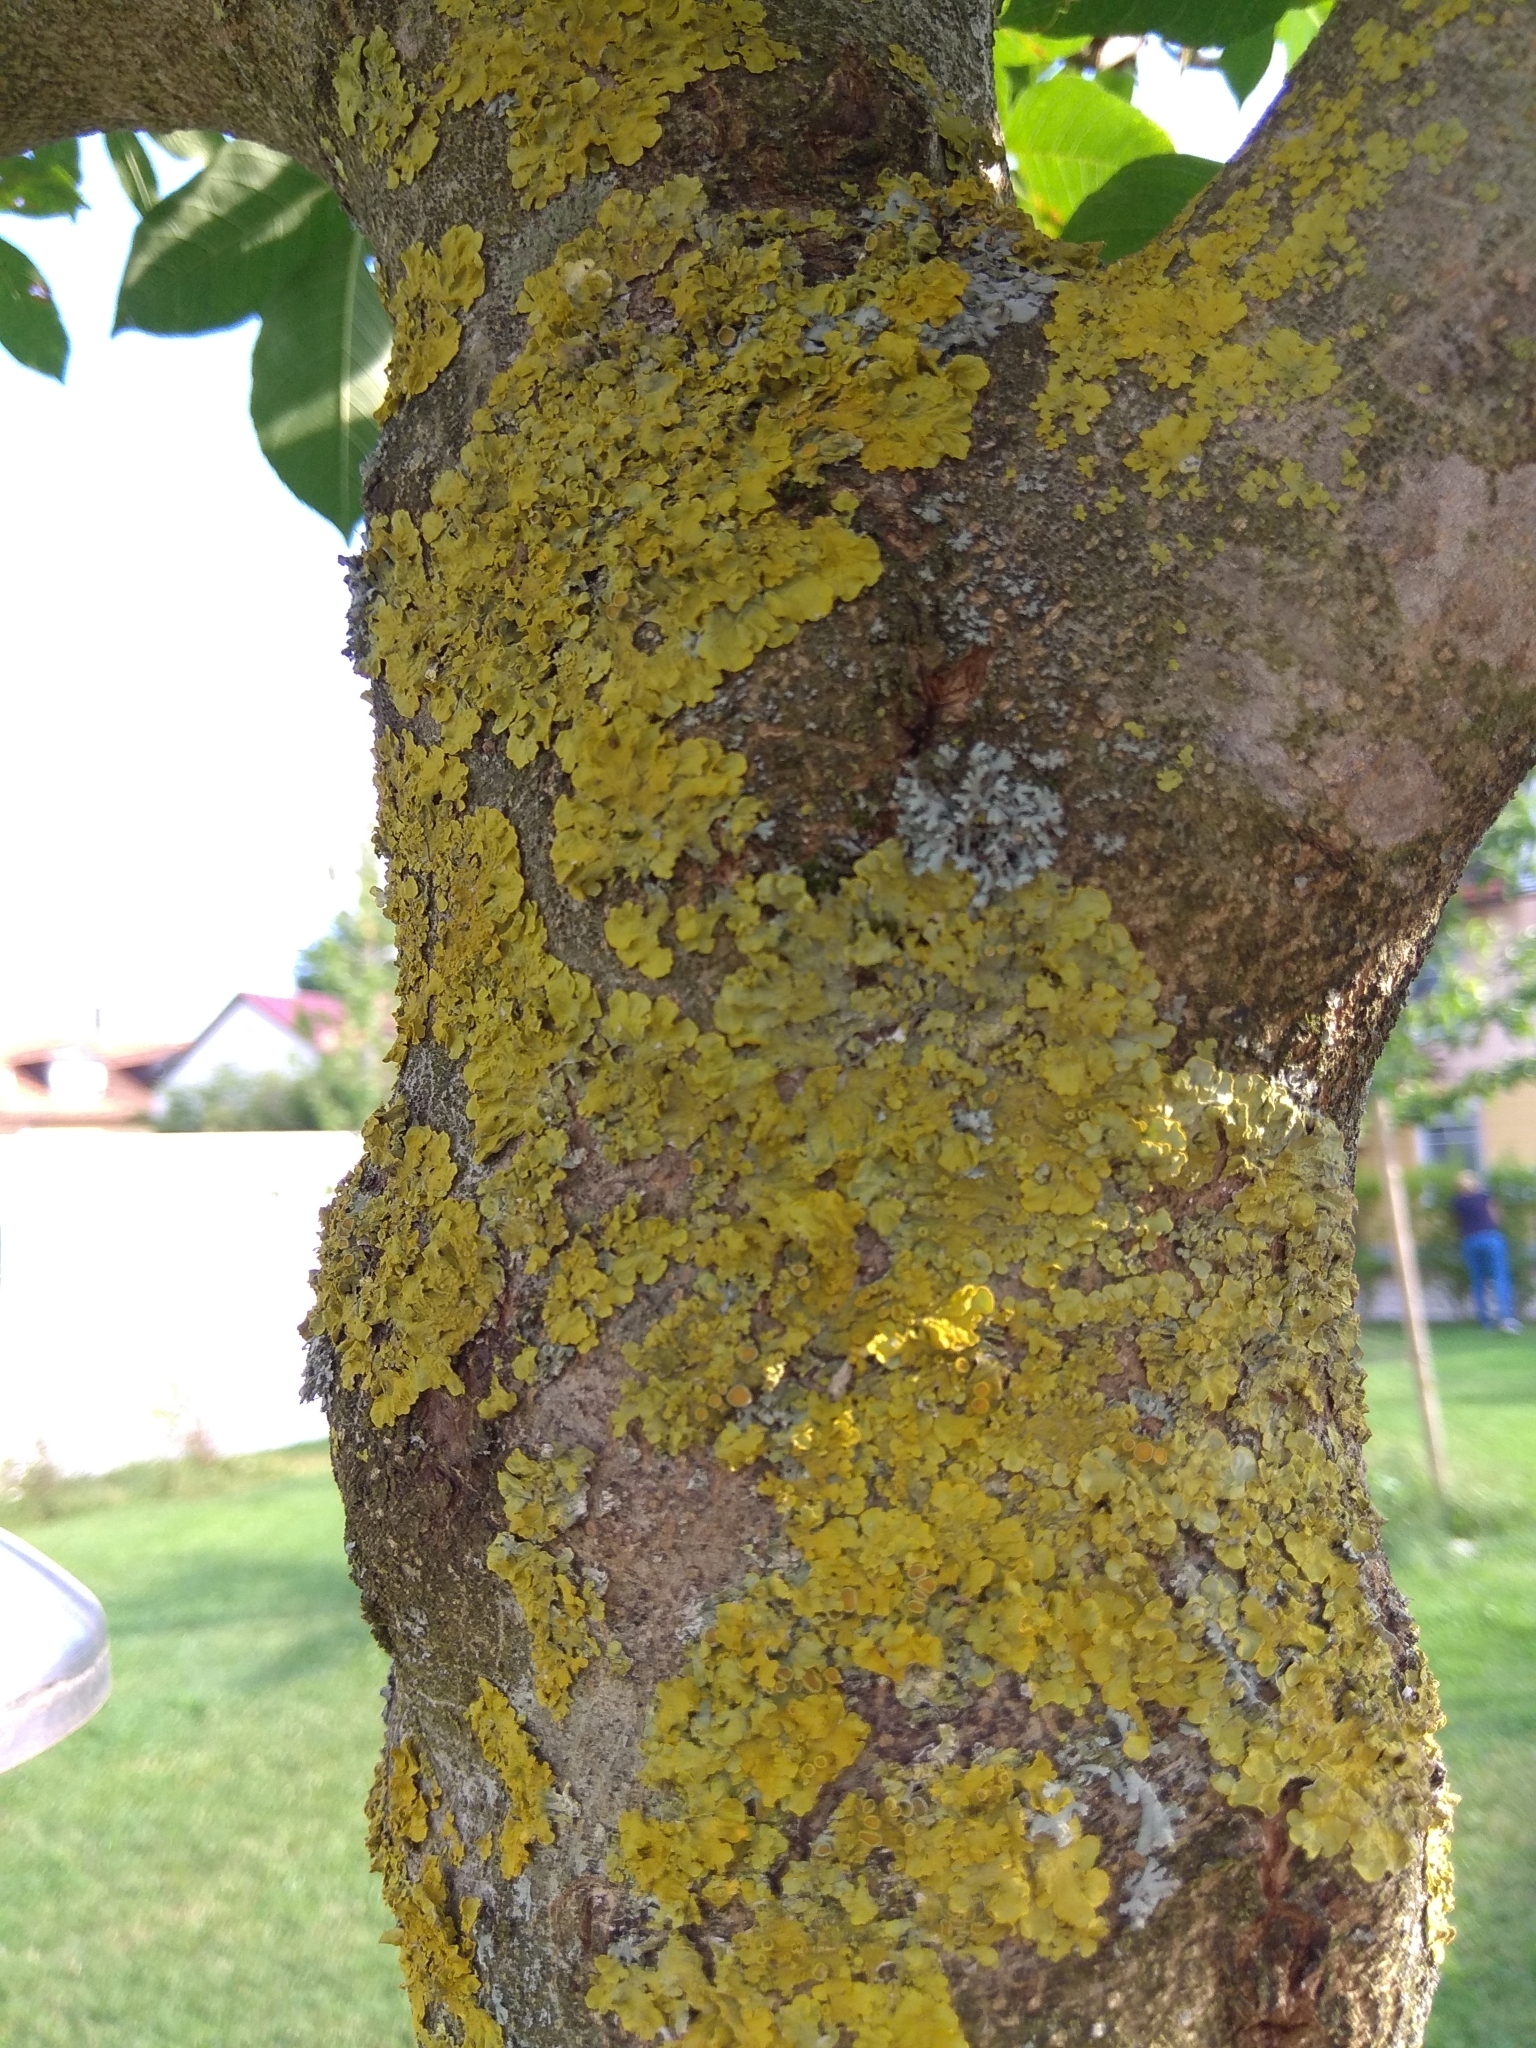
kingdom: Fungi
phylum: Ascomycota
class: Lecanoromycetes
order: Teloschistales
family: Teloschistaceae
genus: Xanthoria
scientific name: Xanthoria parietina
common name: Common orange lichen
